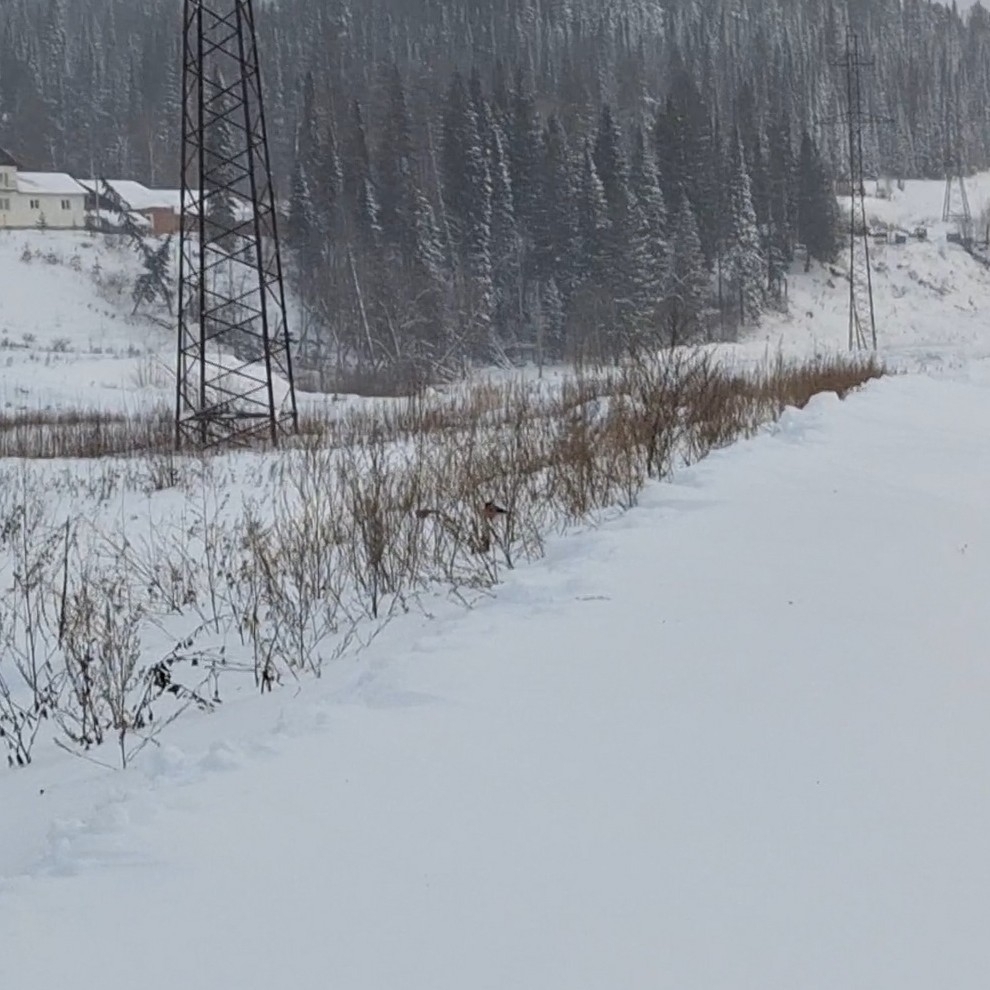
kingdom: Animalia
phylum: Chordata
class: Aves
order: Passeriformes
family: Fringillidae
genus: Pyrrhula
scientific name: Pyrrhula pyrrhula
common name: Eurasian bullfinch
